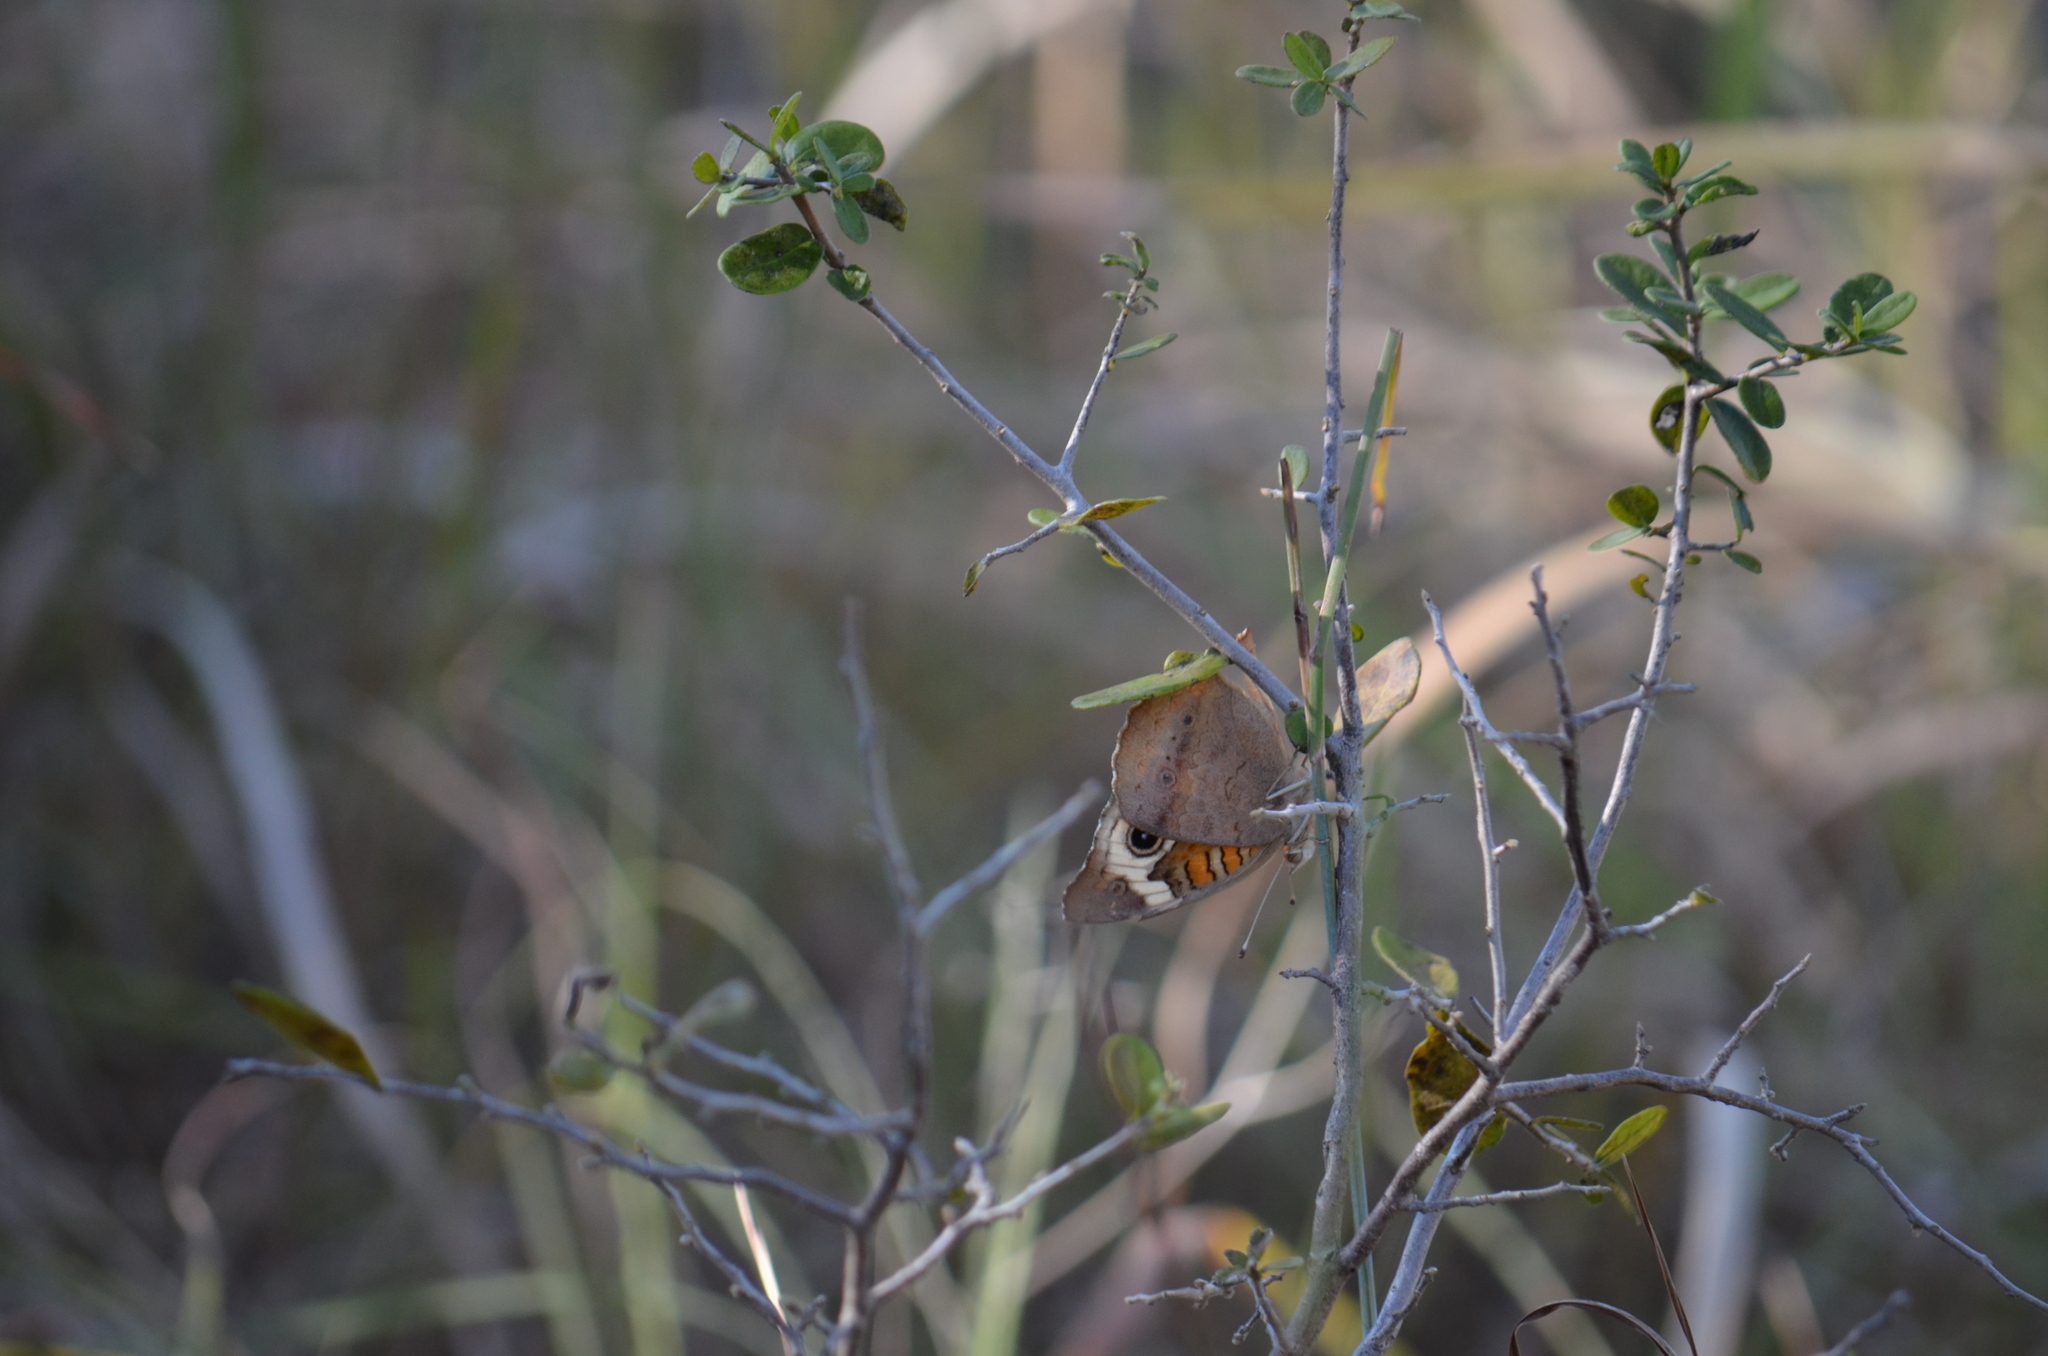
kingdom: Animalia
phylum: Arthropoda
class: Insecta
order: Lepidoptera
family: Nymphalidae
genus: Junonia
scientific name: Junonia coenia
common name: Common buckeye
